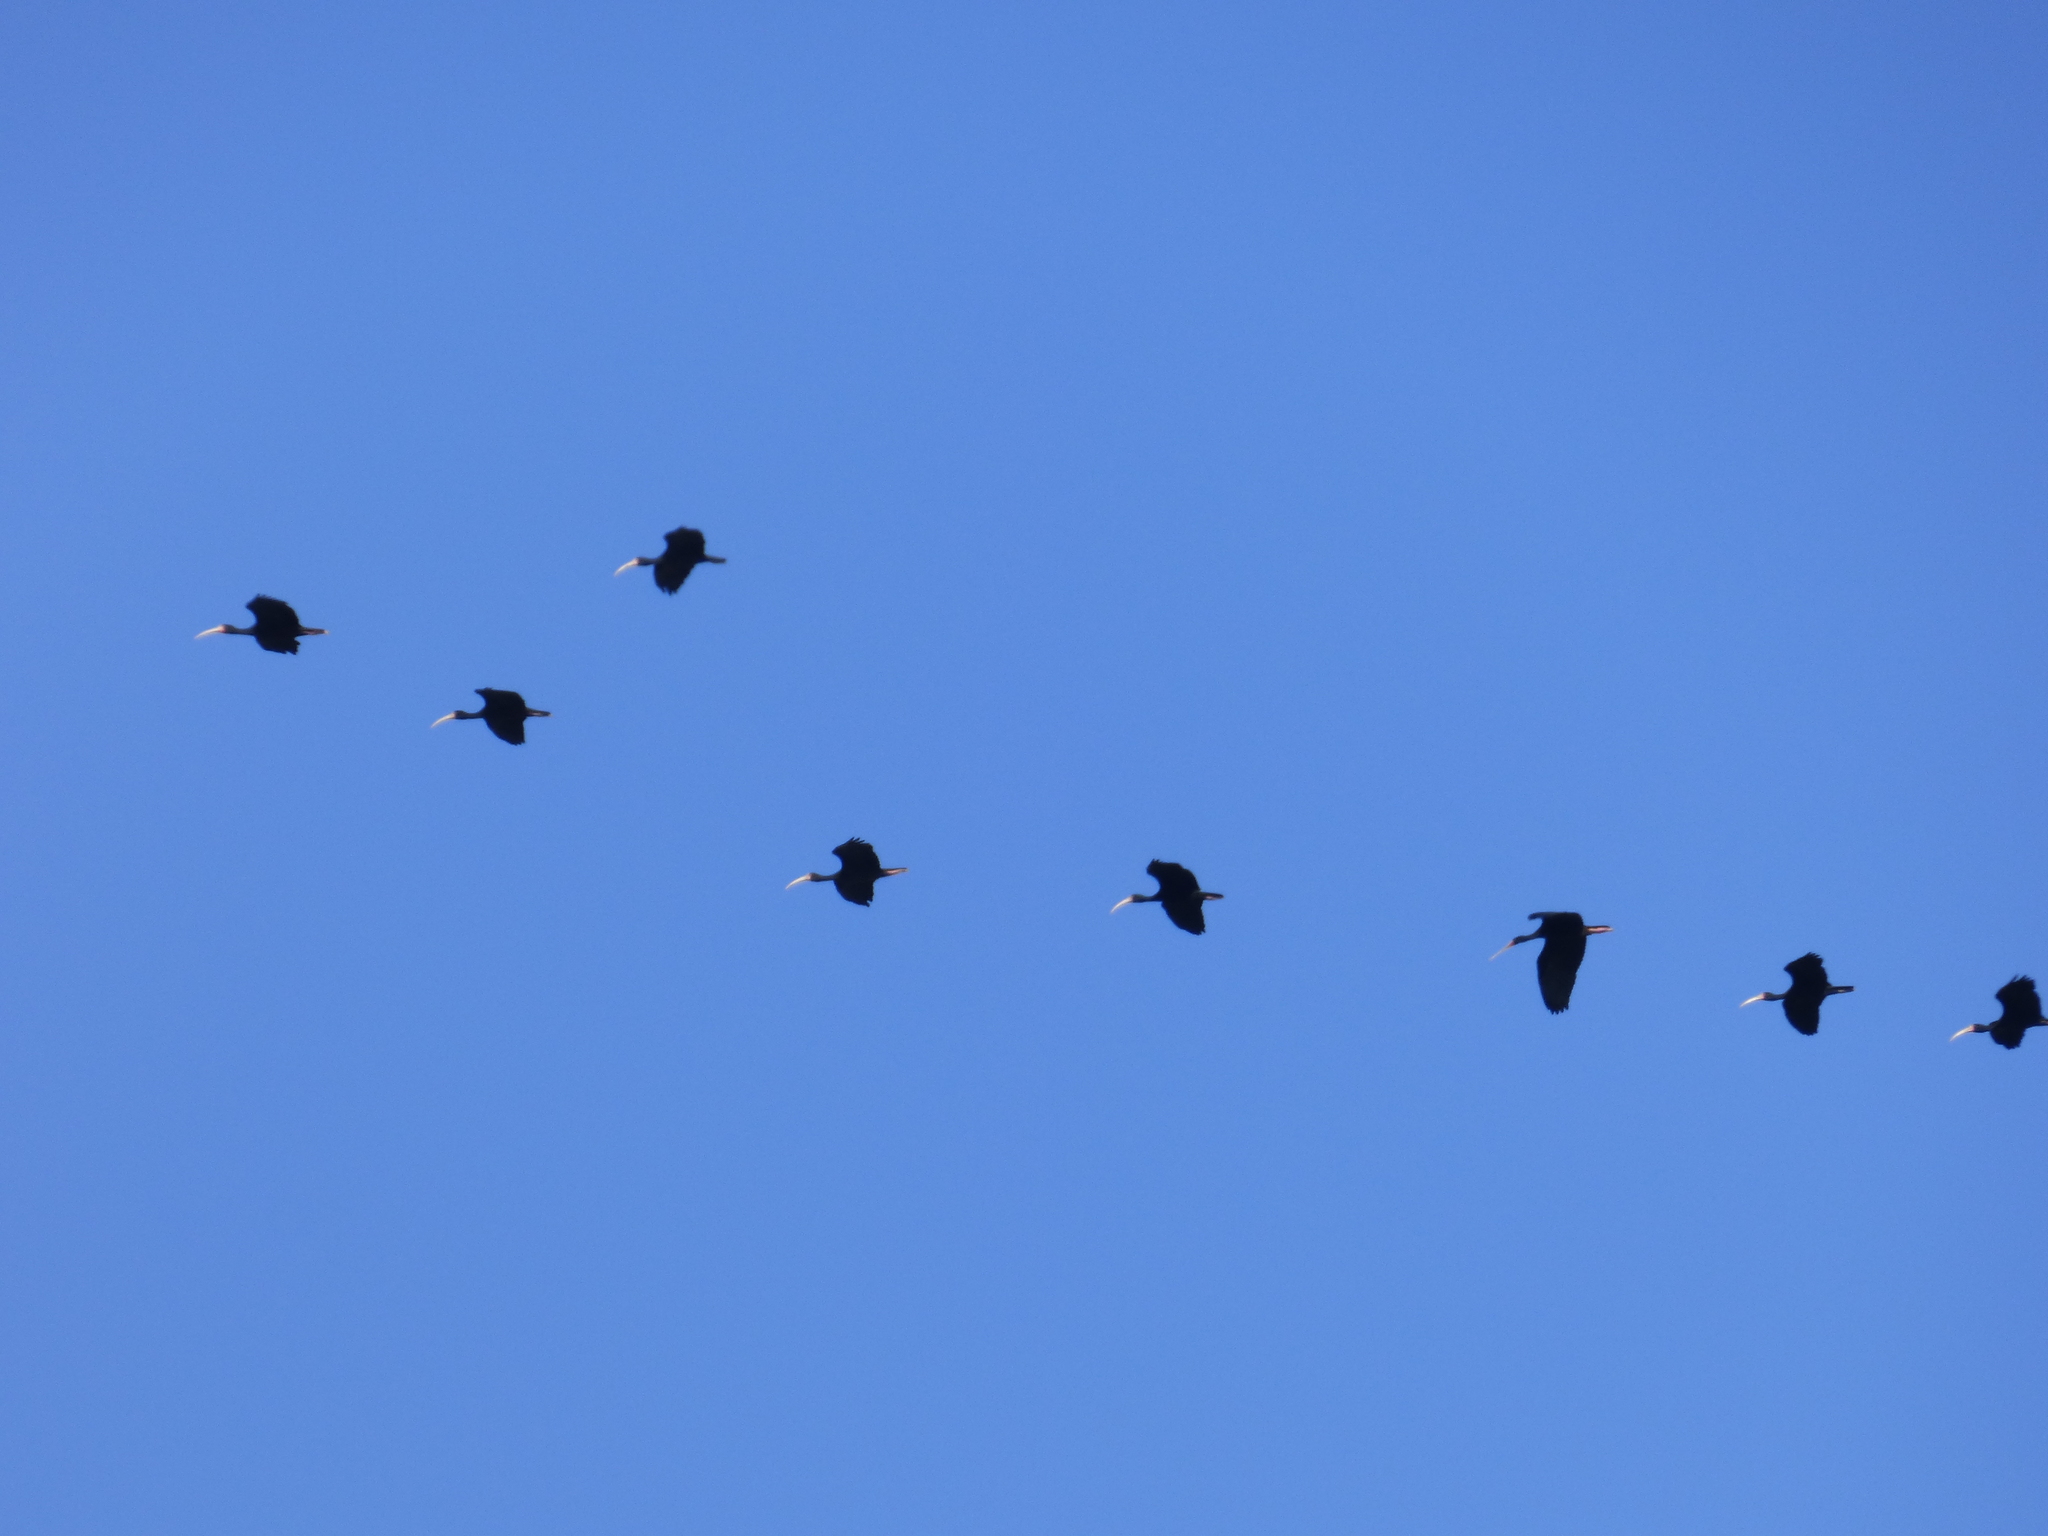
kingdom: Animalia
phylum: Chordata
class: Aves
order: Pelecaniformes
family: Threskiornithidae
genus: Phimosus
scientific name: Phimosus infuscatus
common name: Bare-faced ibis
